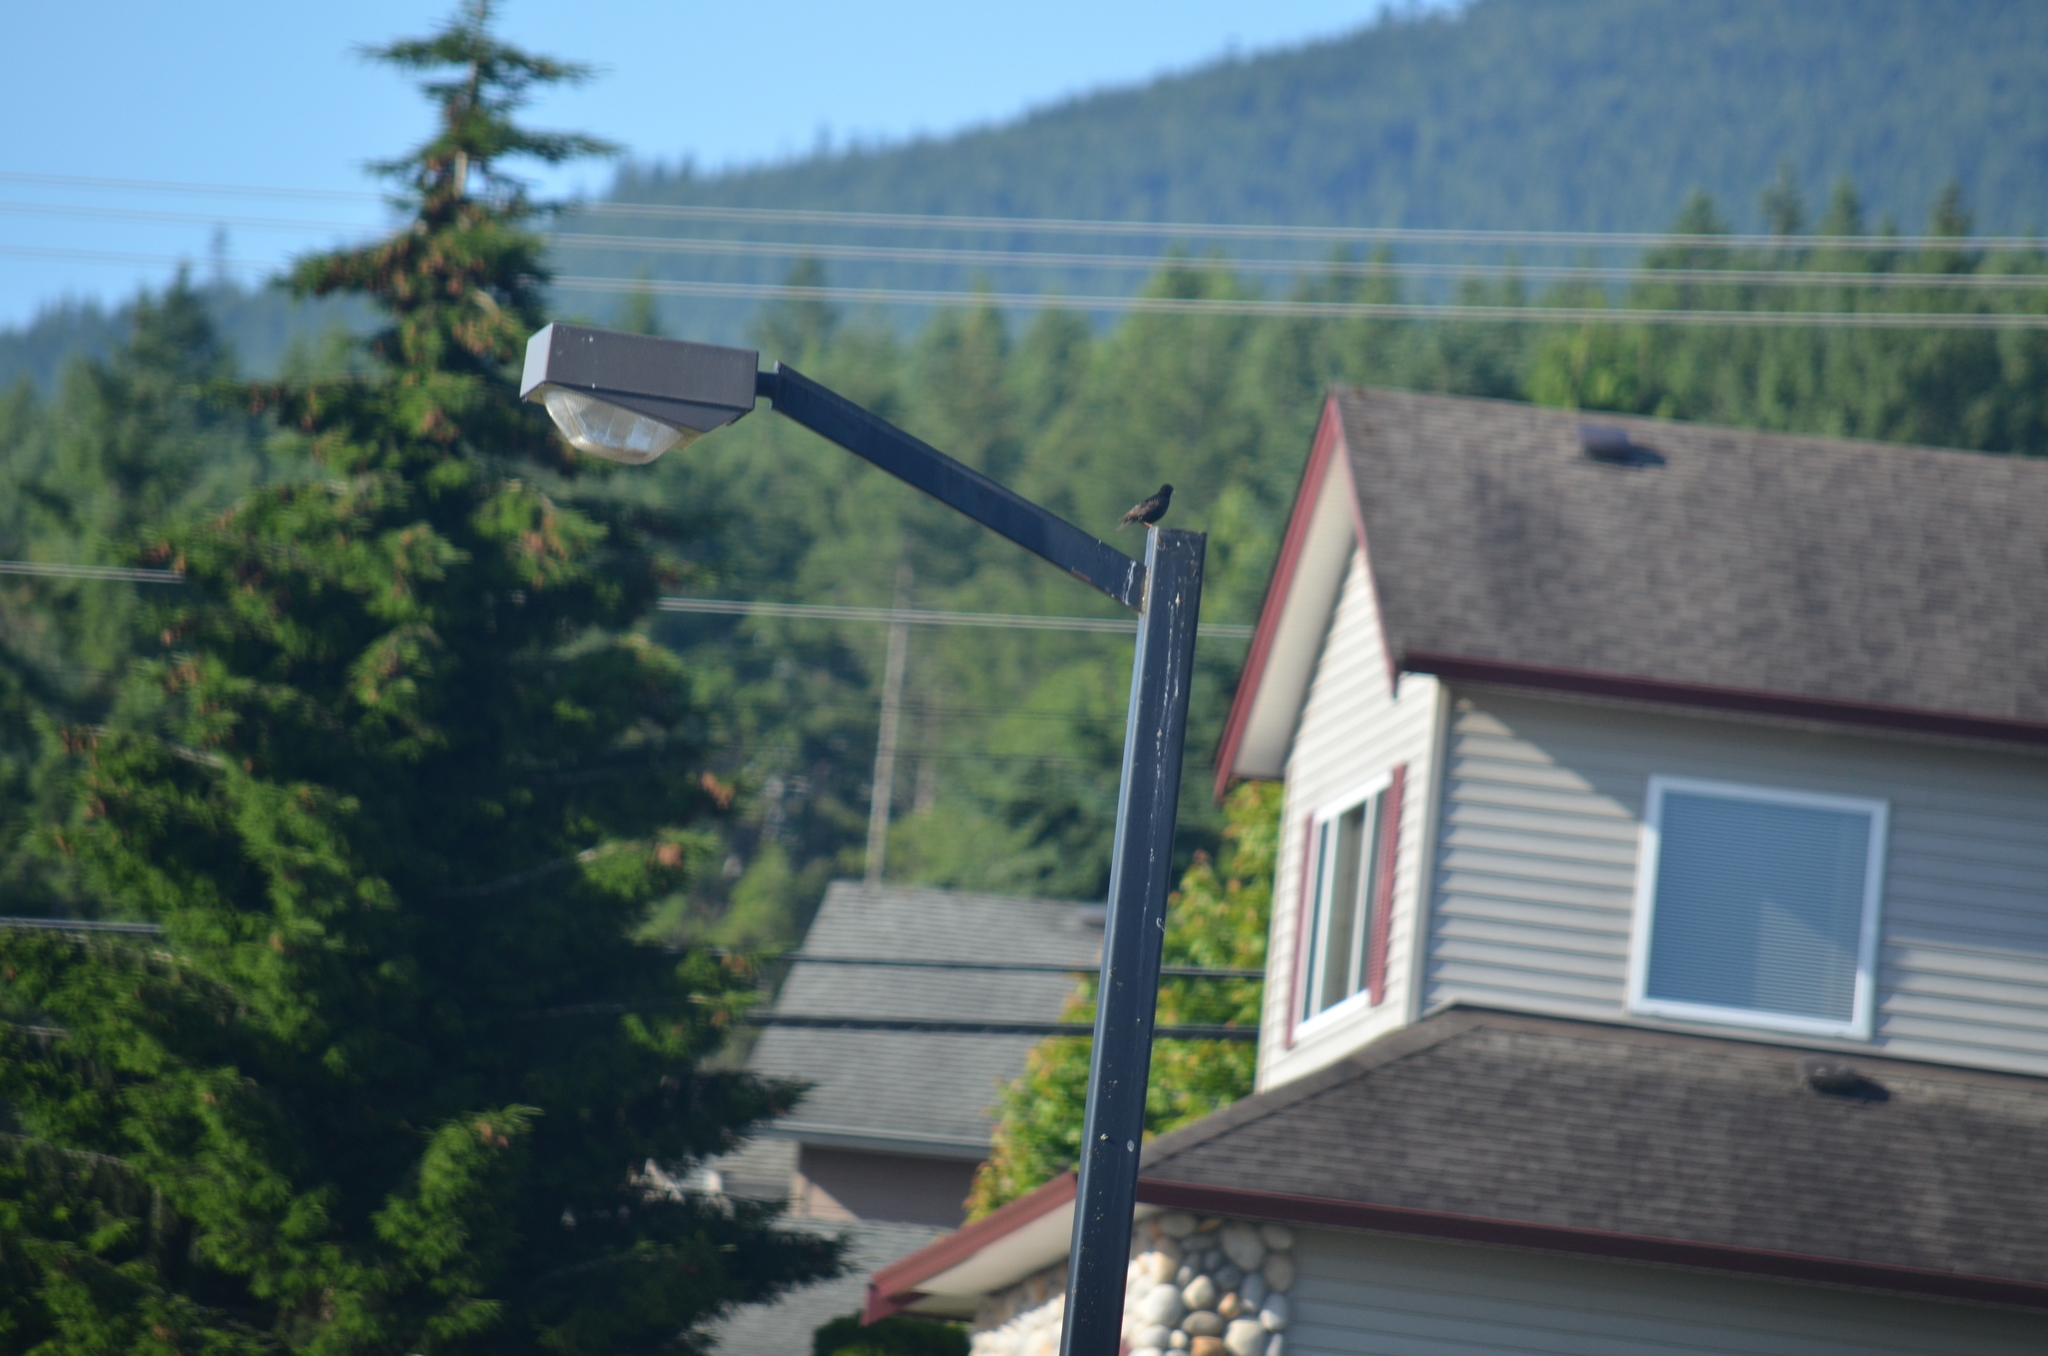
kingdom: Animalia
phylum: Chordata
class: Aves
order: Passeriformes
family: Sturnidae
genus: Sturnus
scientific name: Sturnus vulgaris
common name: Common starling
